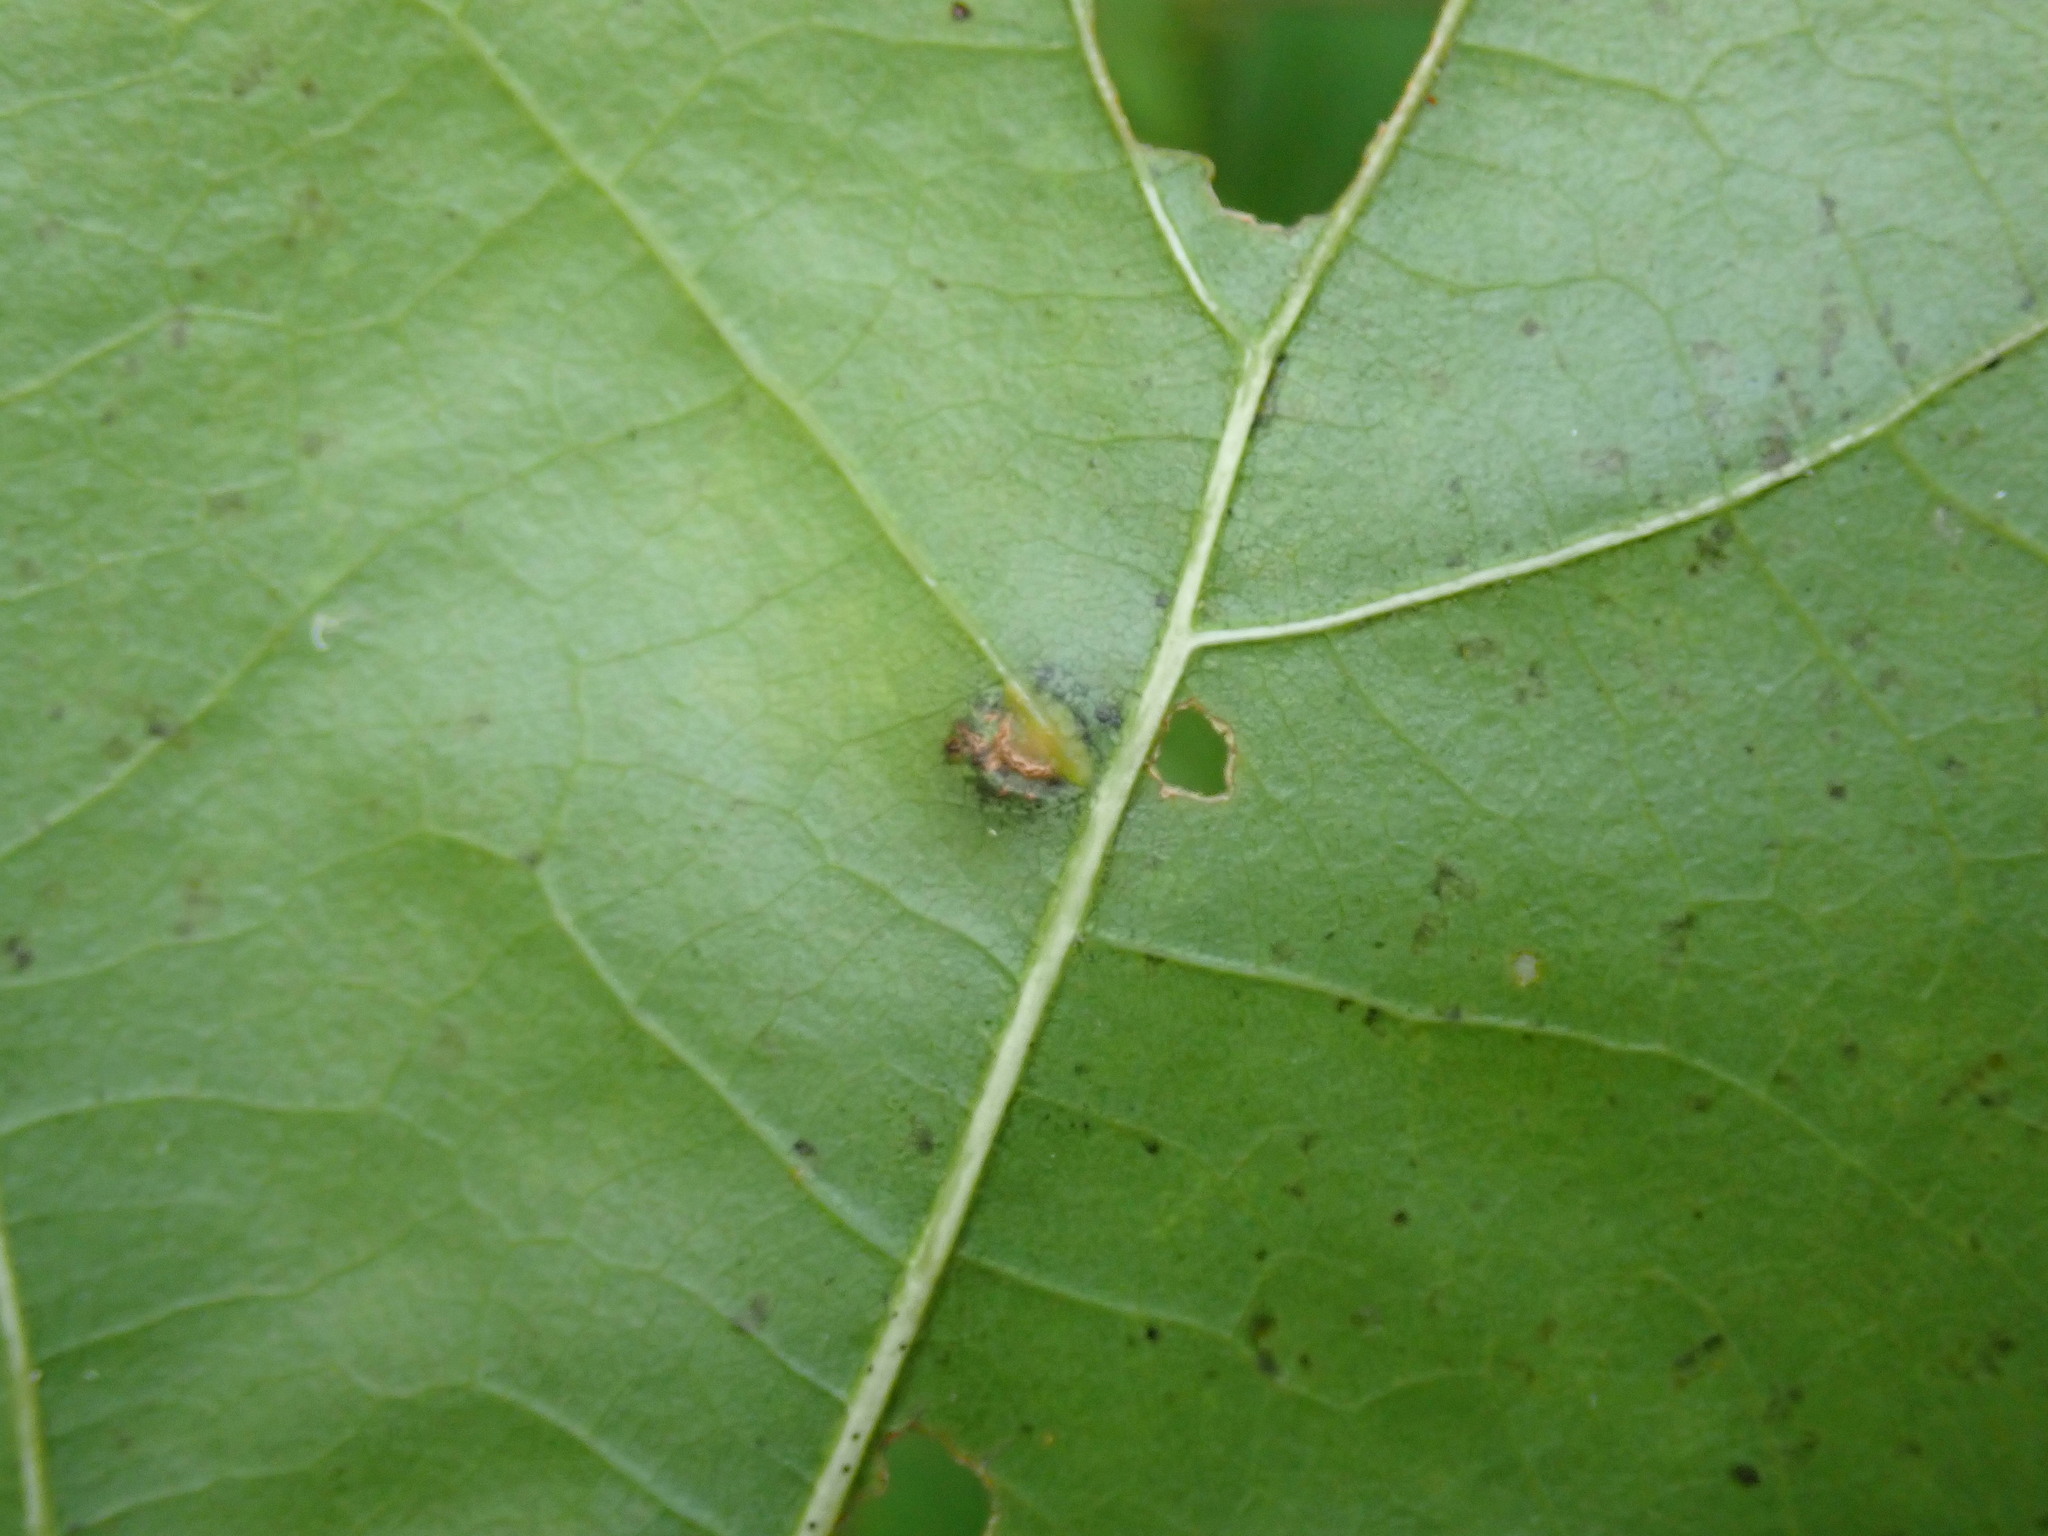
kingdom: Animalia
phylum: Arthropoda
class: Insecta
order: Diptera
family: Cecidomyiidae
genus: Polystepha
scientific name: Polystepha pilulae
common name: Oak leaf gall midge
